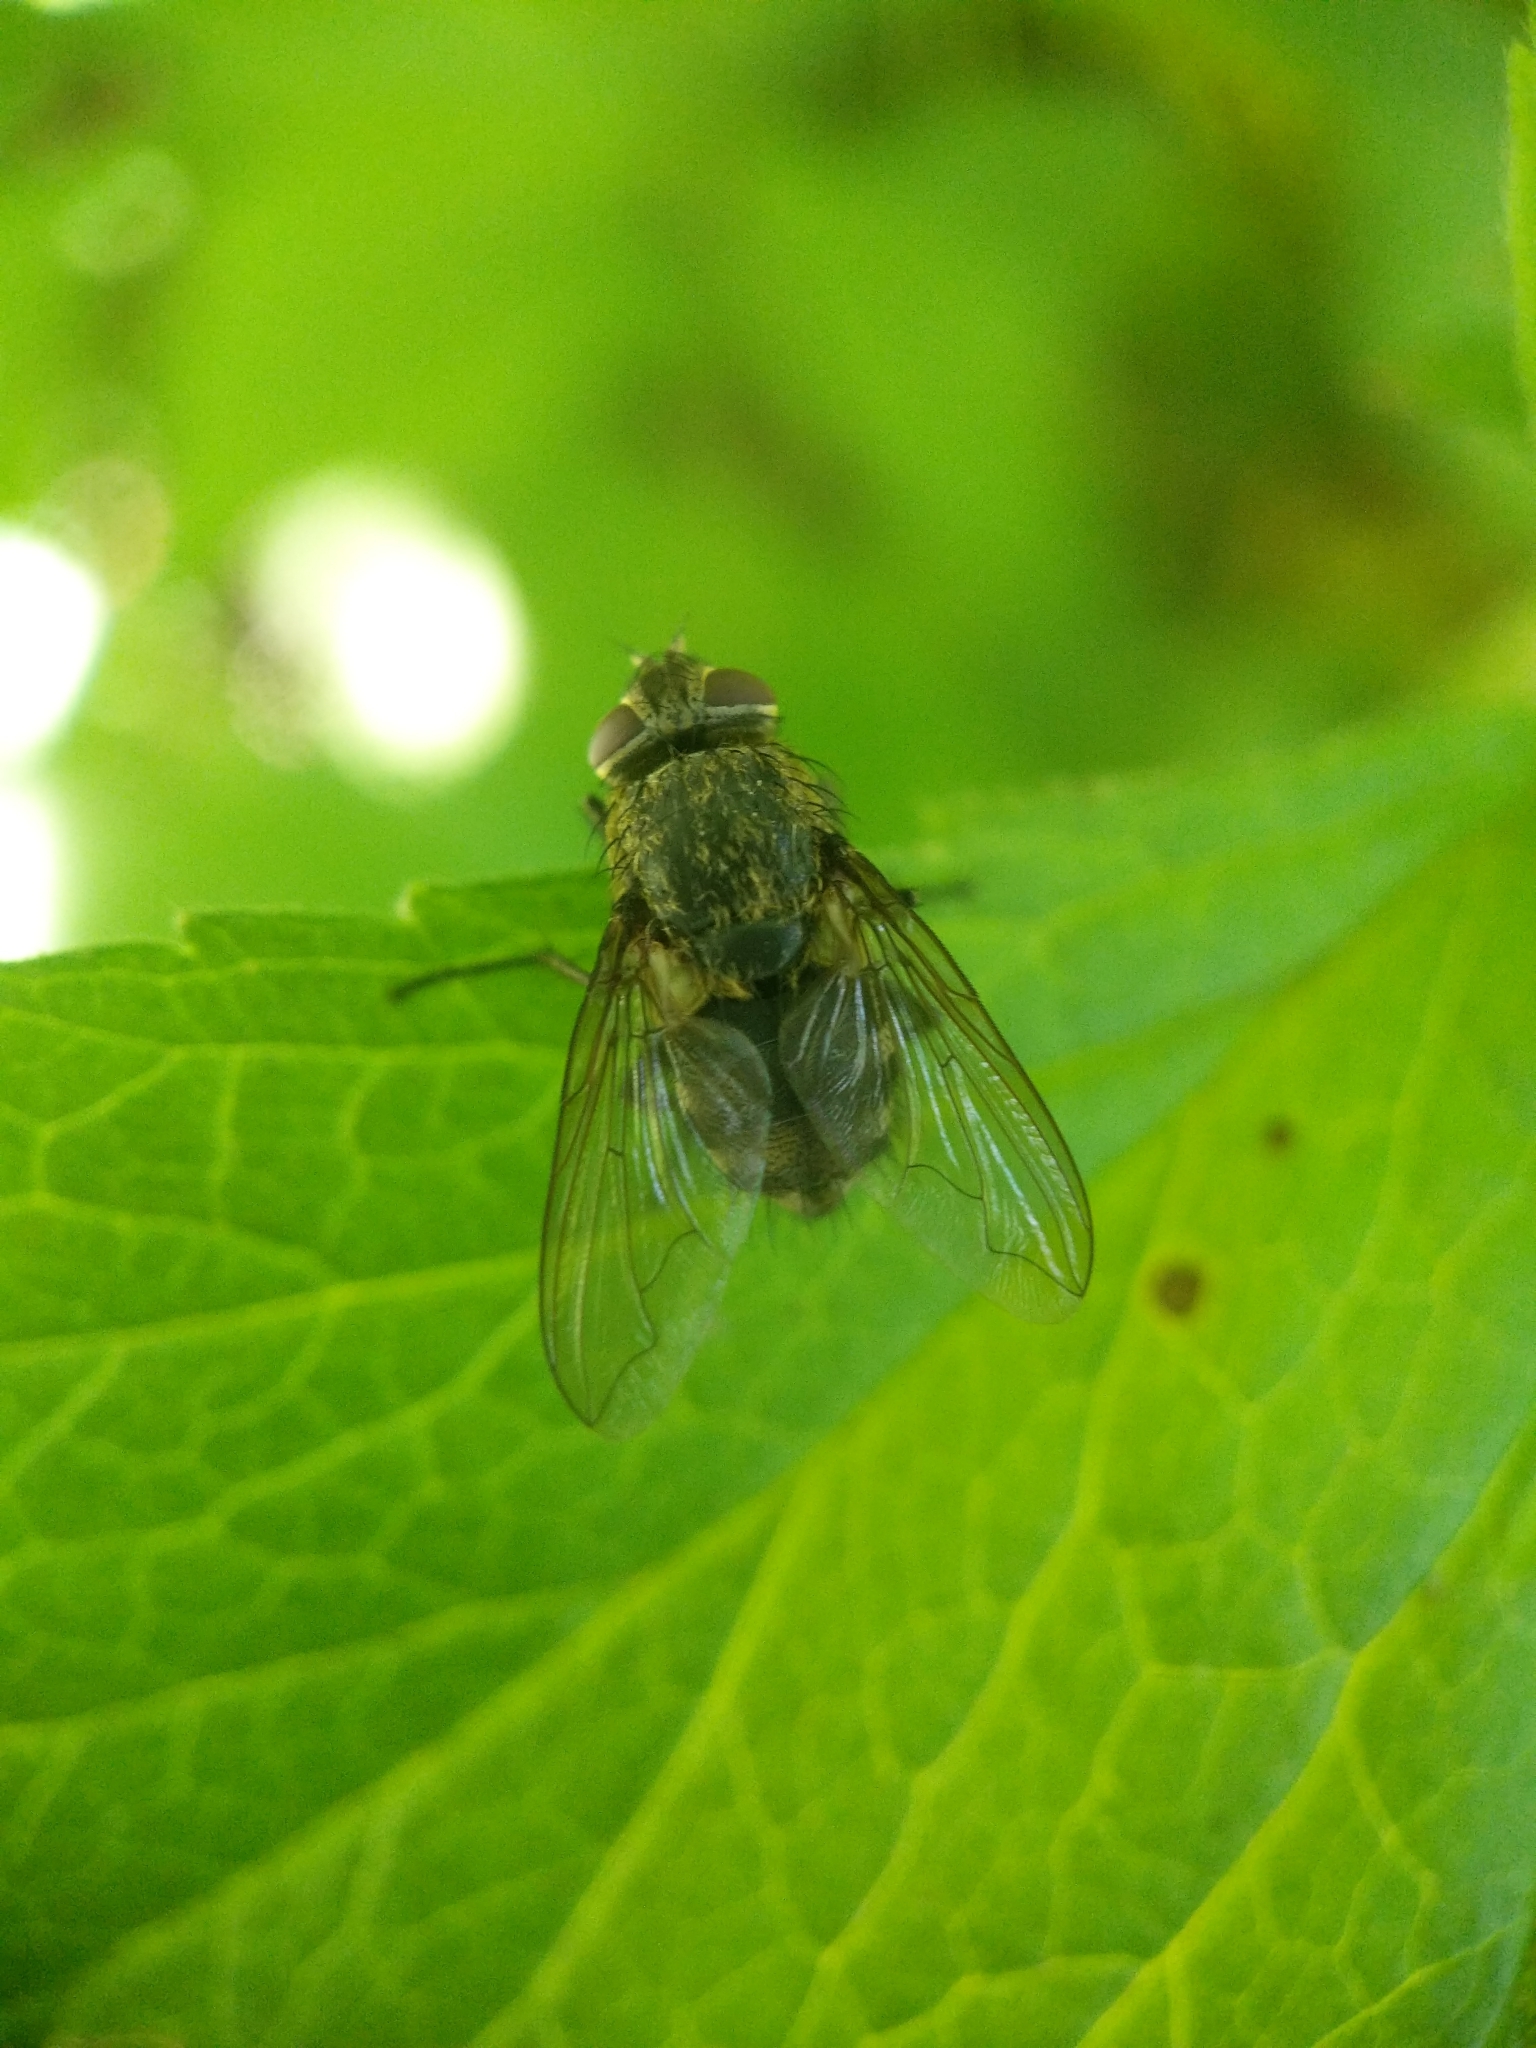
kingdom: Animalia
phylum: Arthropoda
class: Insecta
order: Diptera
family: Polleniidae
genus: Pollenia
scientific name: Pollenia
